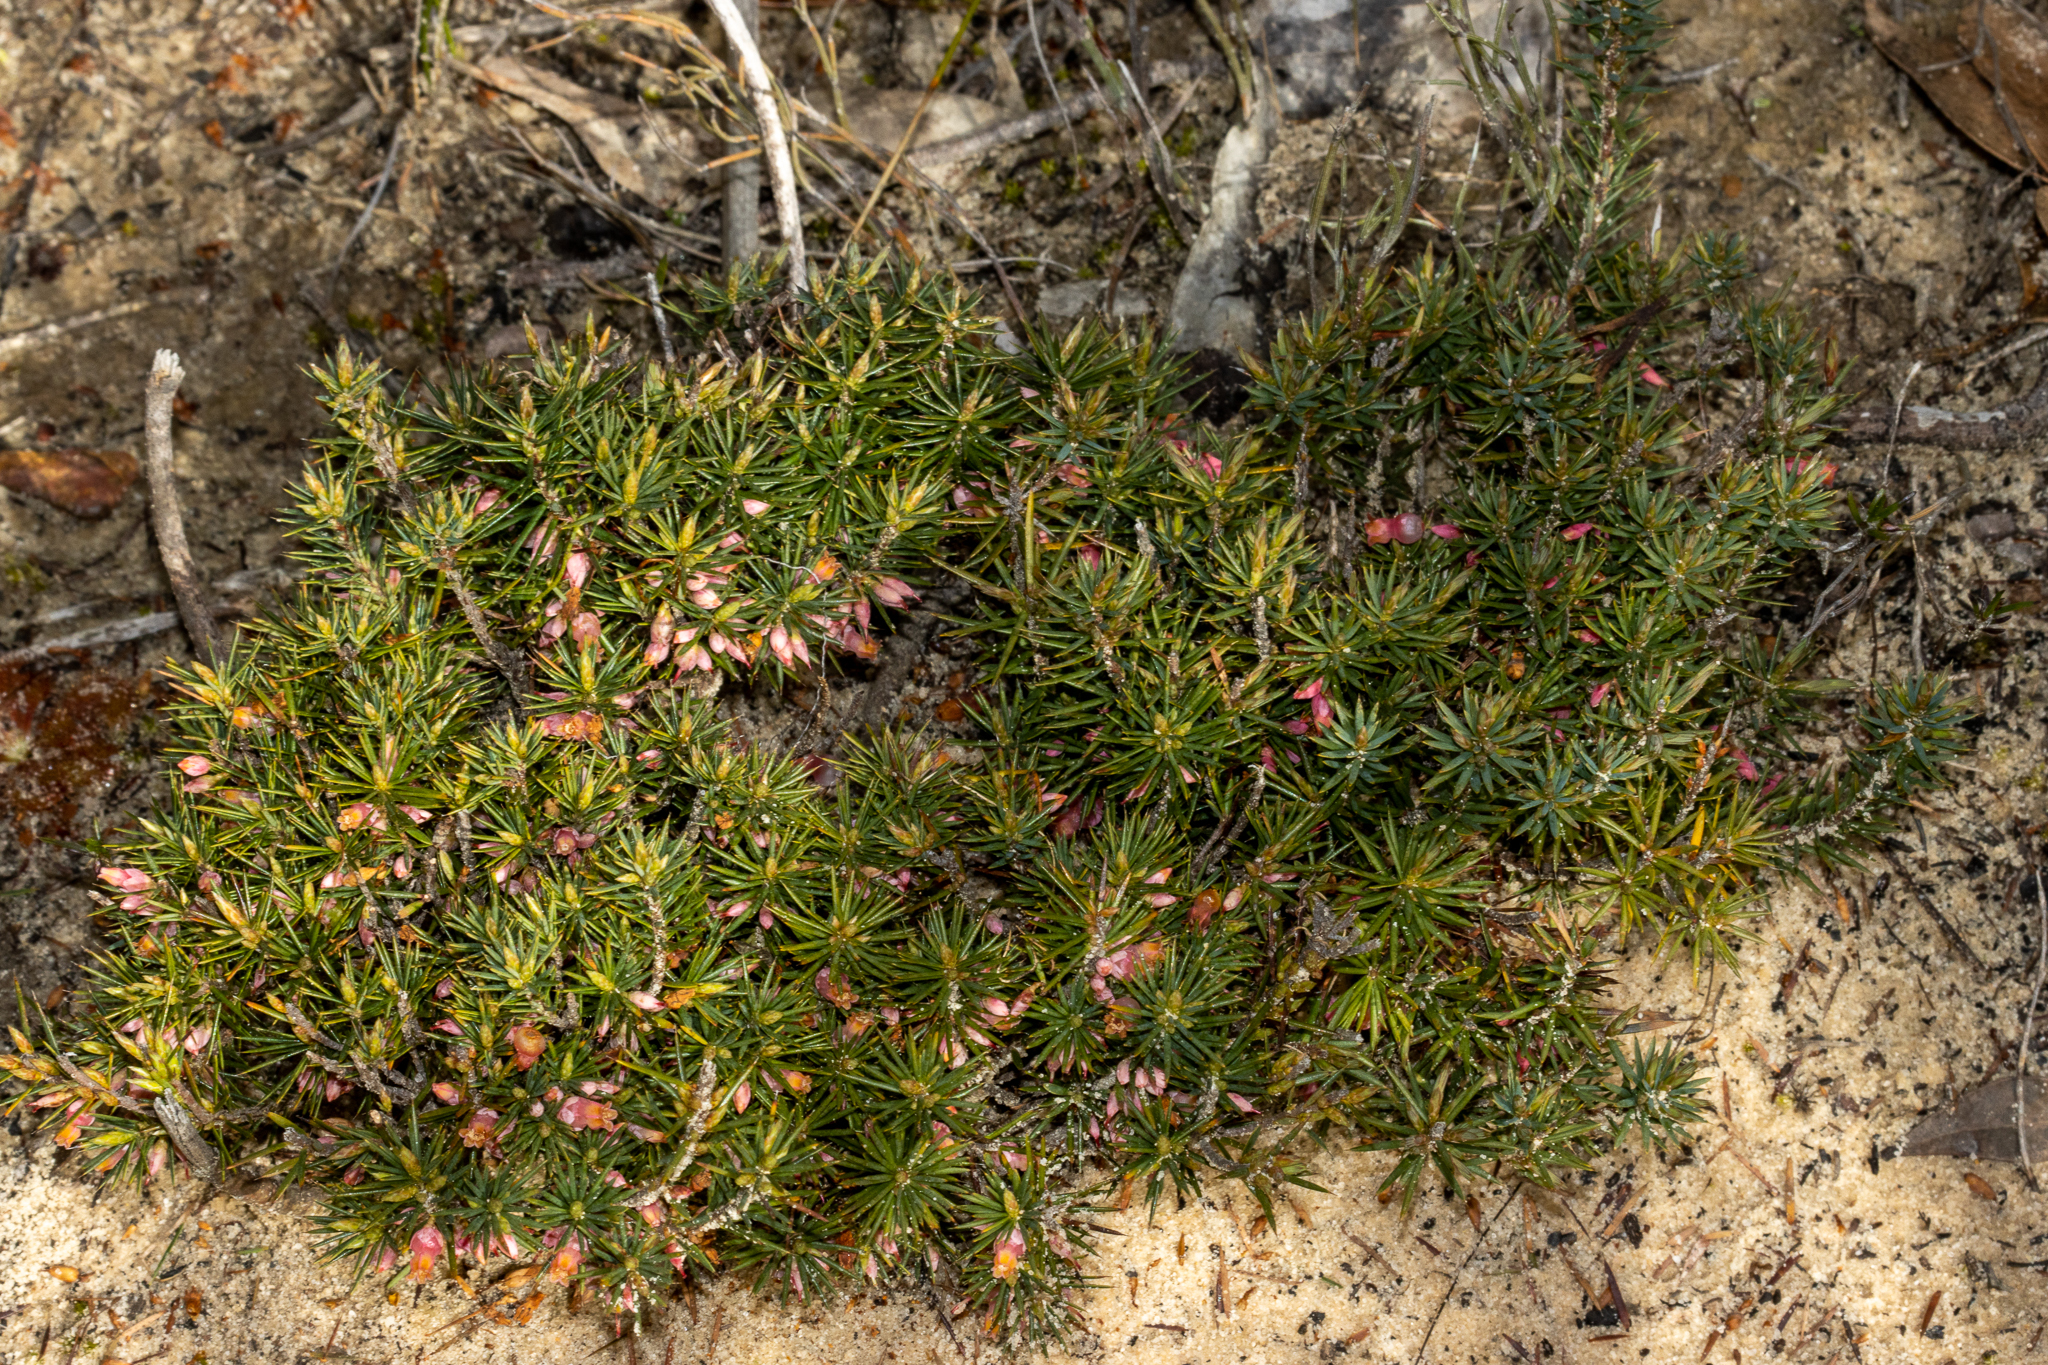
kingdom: Plantae
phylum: Tracheophyta
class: Magnoliopsida
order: Ericales
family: Ericaceae
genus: Brachyloma
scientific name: Brachyloma ericoides
